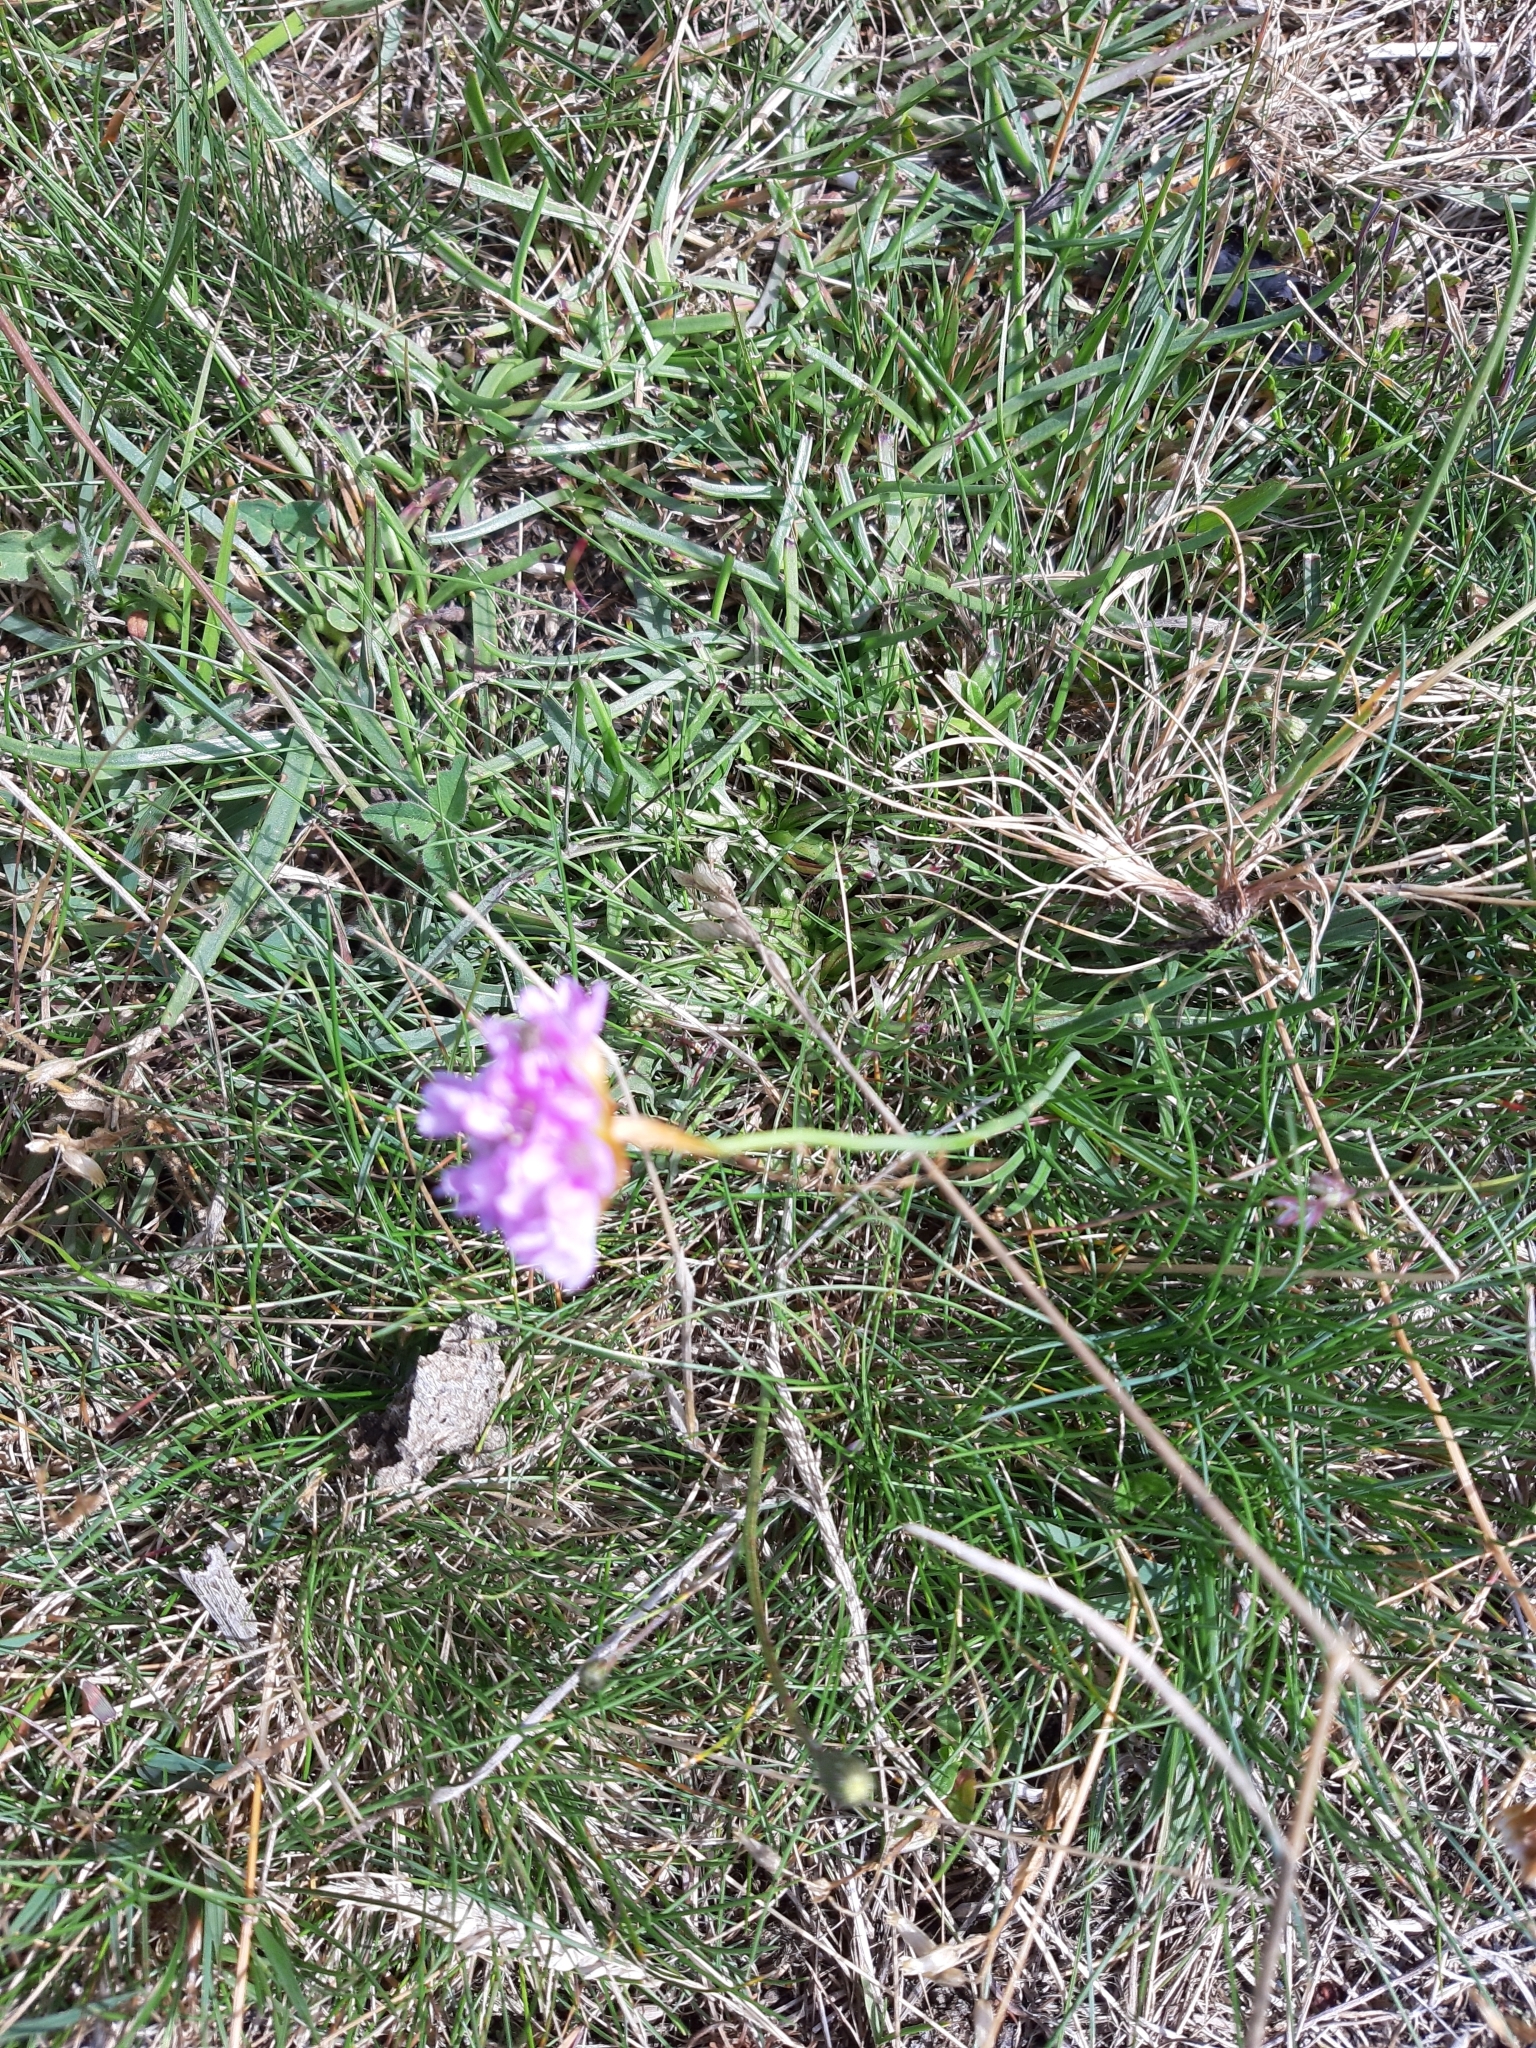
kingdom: Plantae
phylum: Tracheophyta
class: Magnoliopsida
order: Caryophyllales
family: Plumbaginaceae
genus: Armeria
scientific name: Armeria maritima
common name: Thrift
